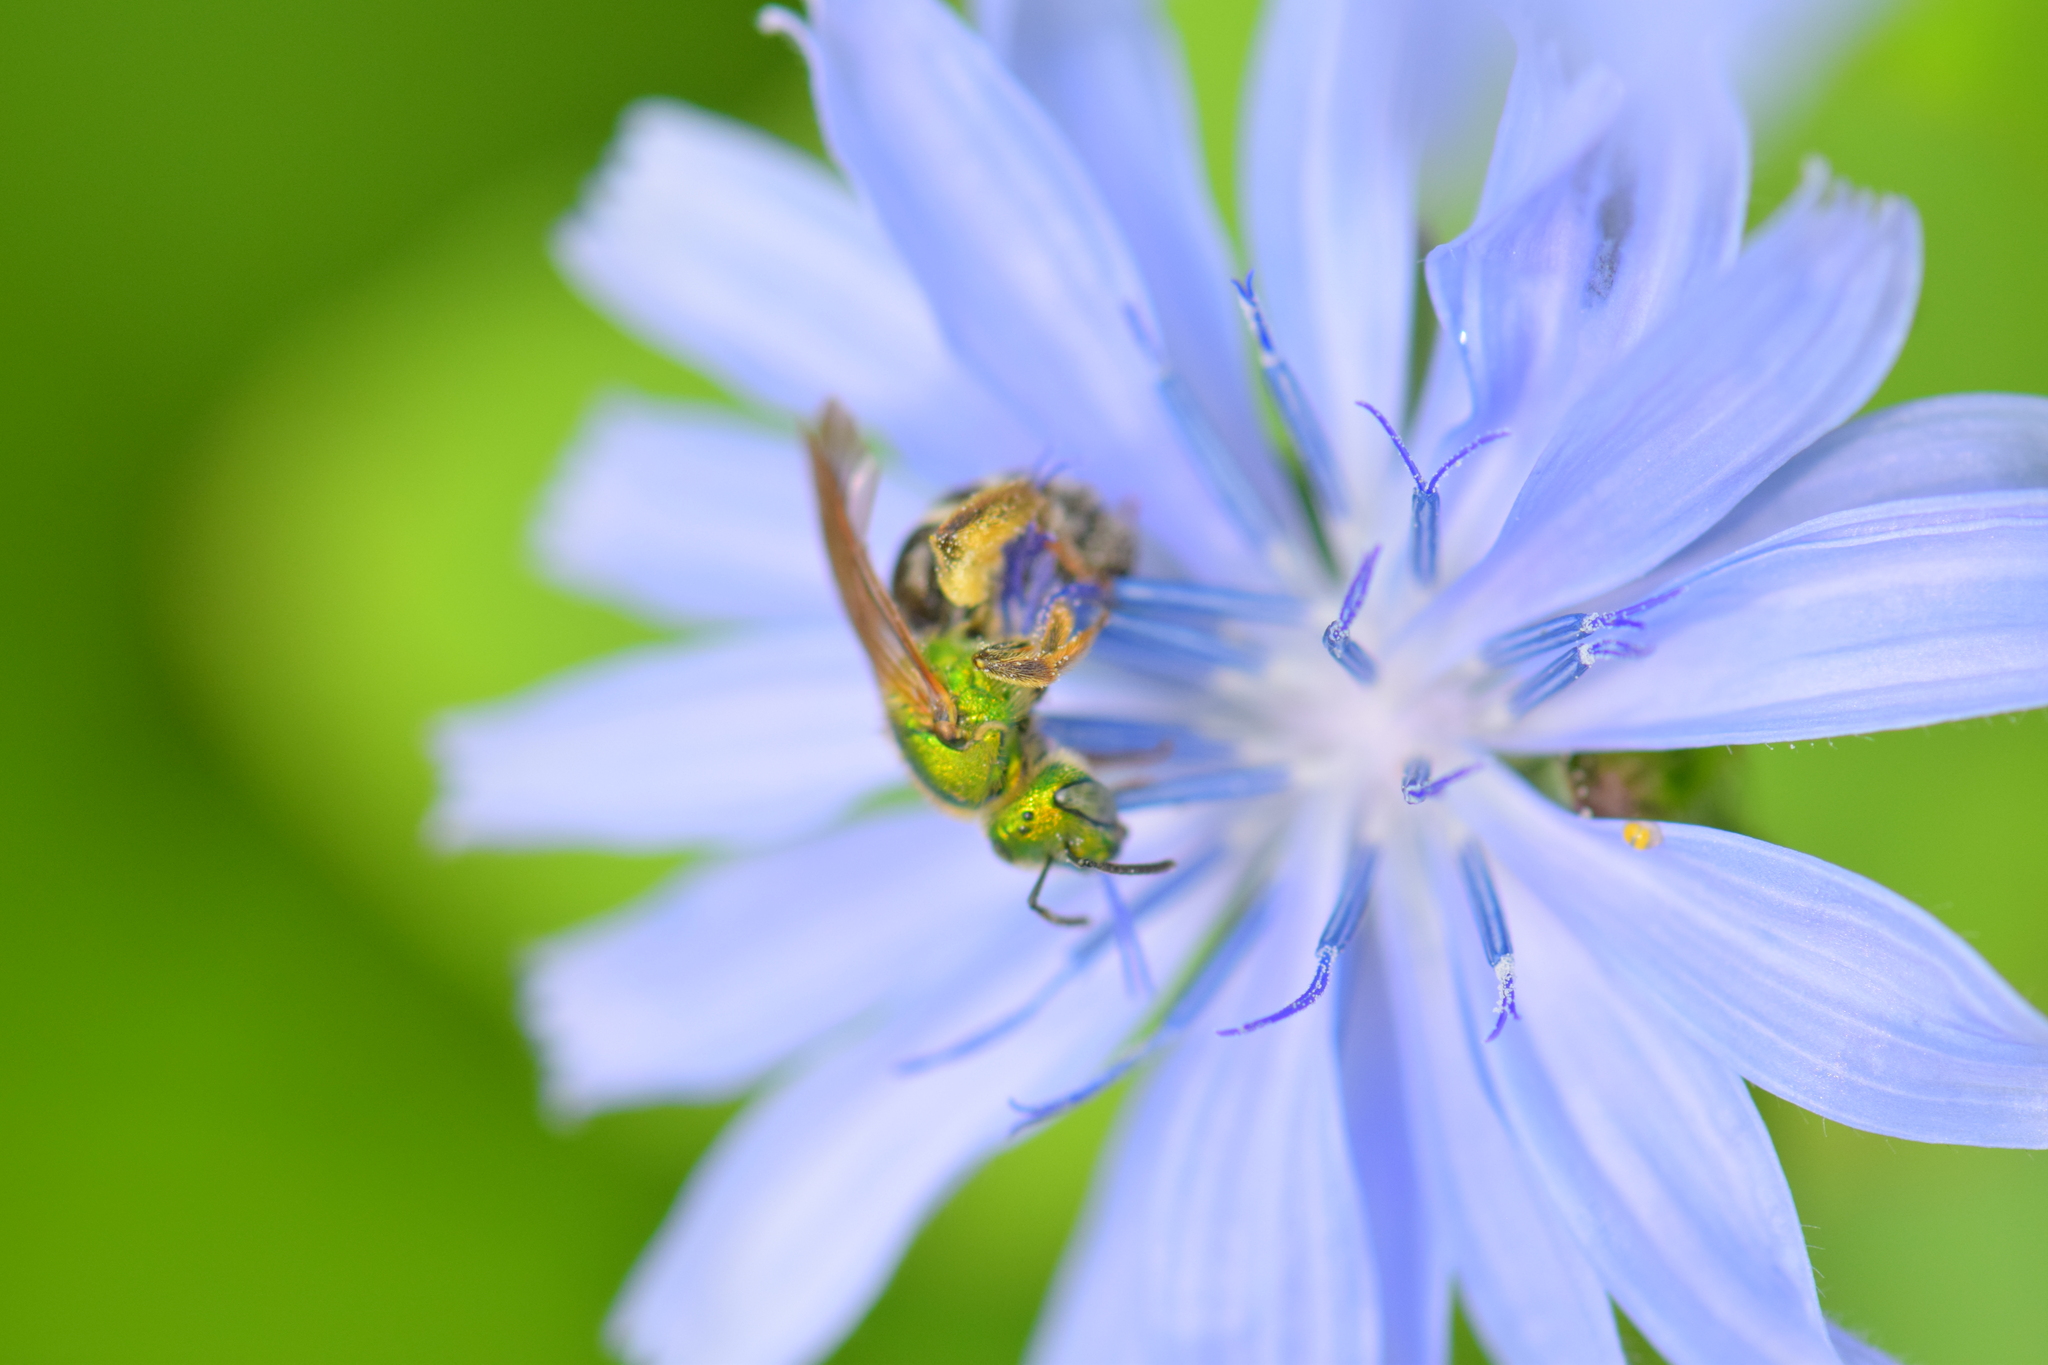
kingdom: Animalia
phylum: Arthropoda
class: Insecta
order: Hymenoptera
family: Halictidae
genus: Agapostemon
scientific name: Agapostemon virescens
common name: Bicolored striped sweat bee
